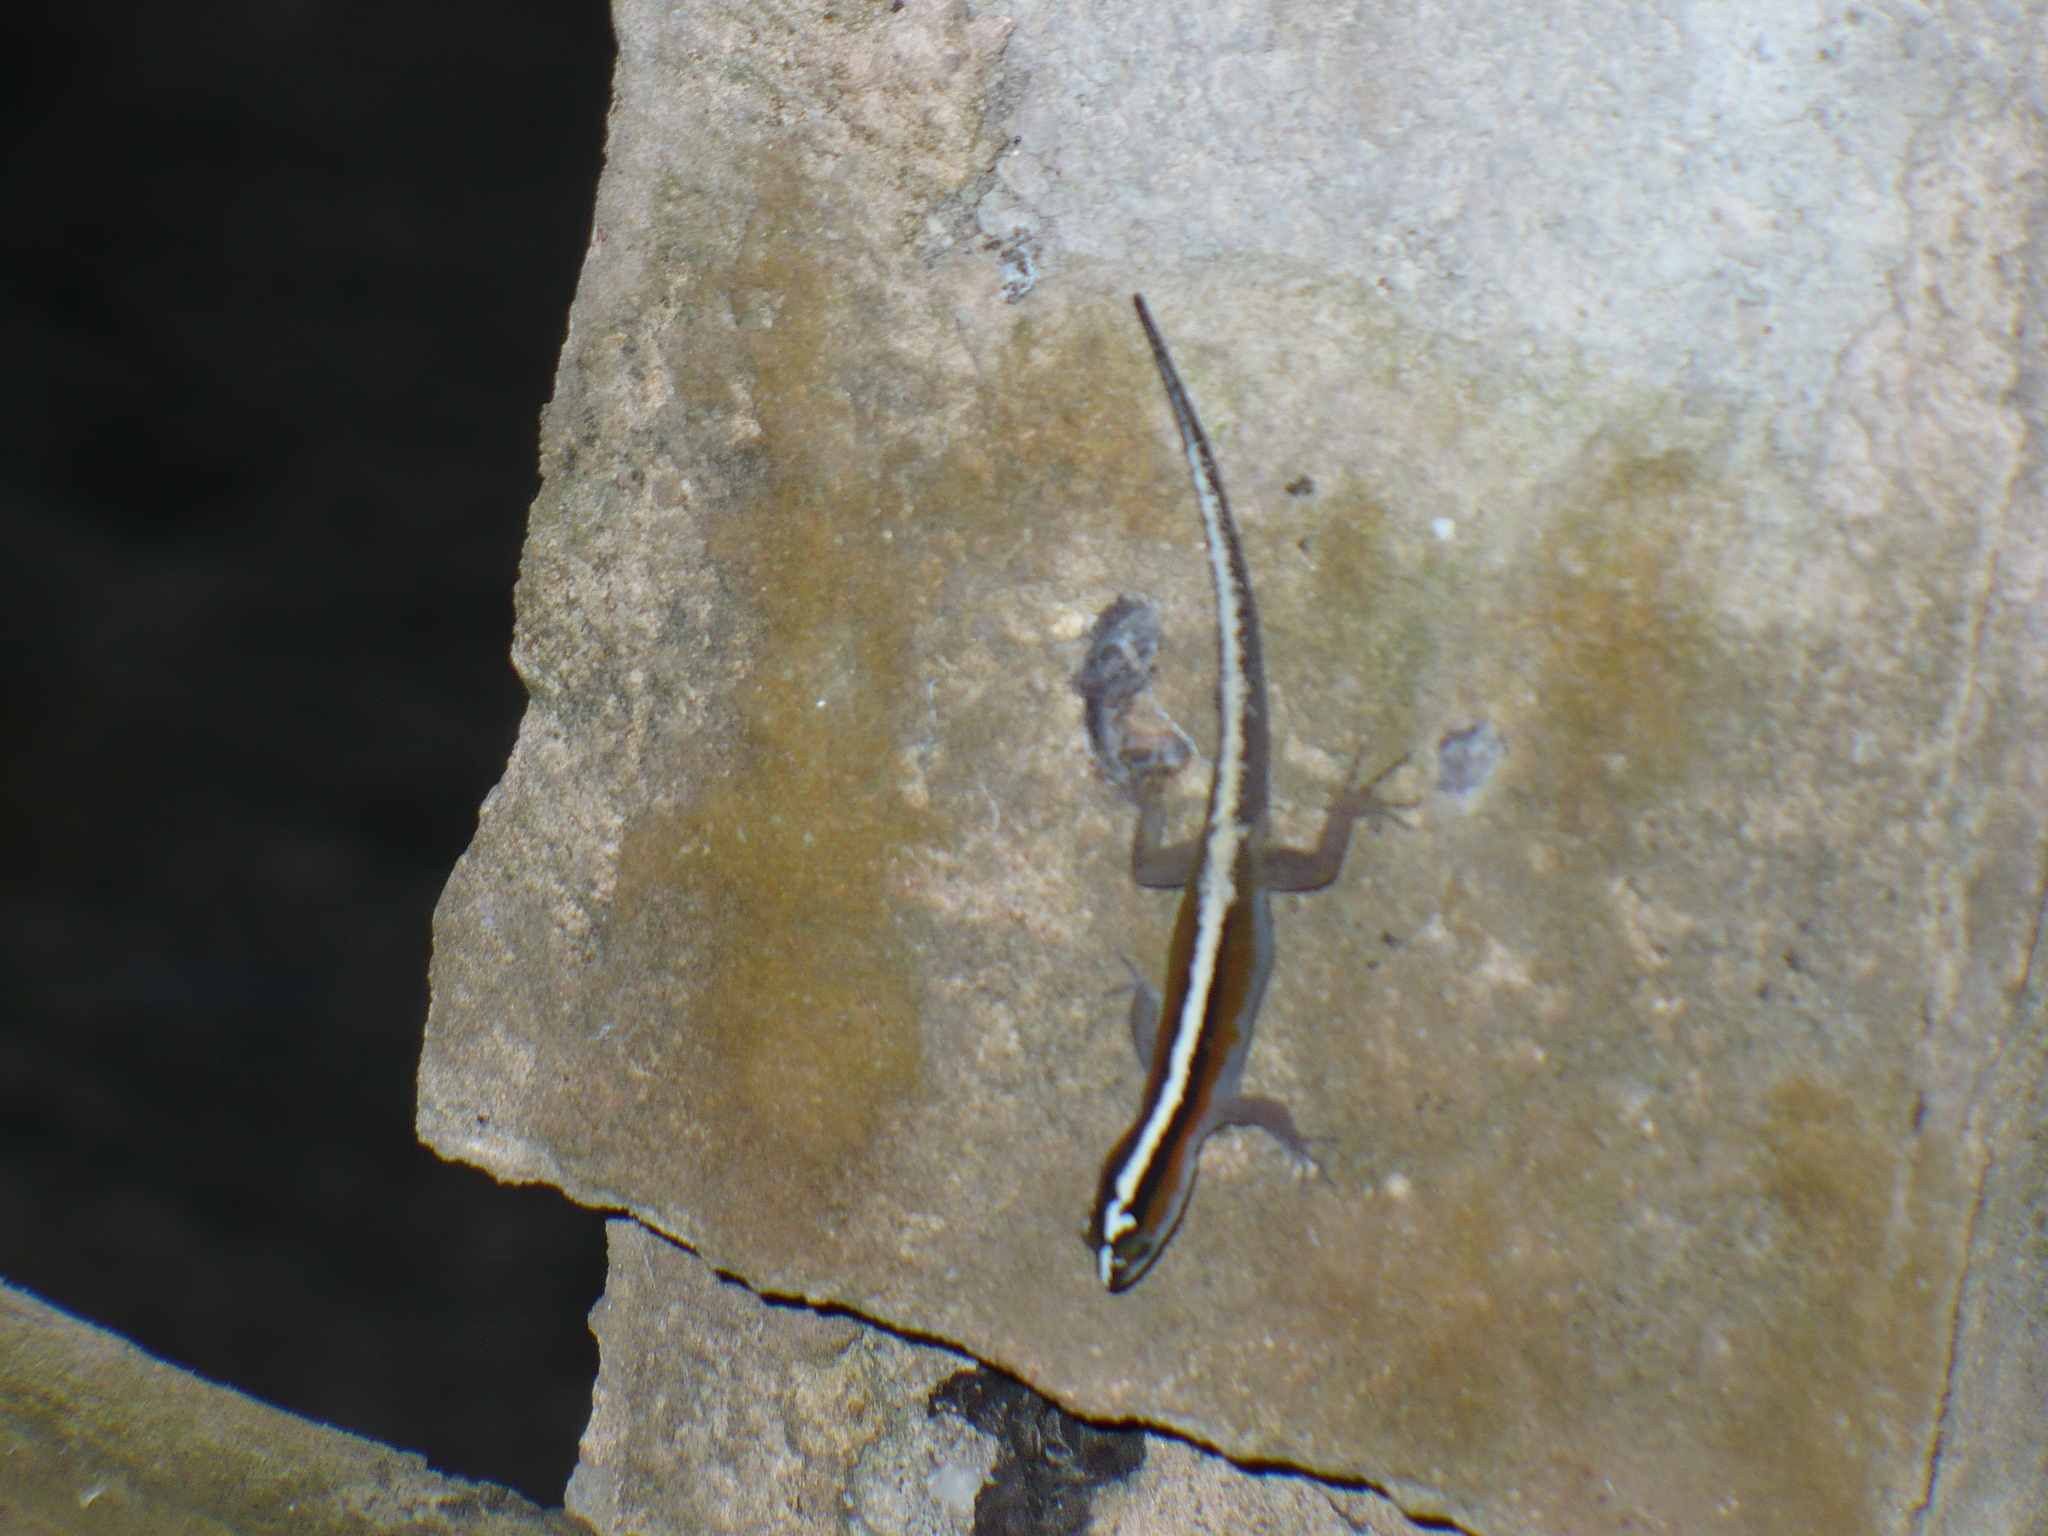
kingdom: Animalia
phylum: Chordata
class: Squamata
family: Sphaerodactylidae
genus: Gonatodes
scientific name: Gonatodes vittatus
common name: Wiegmann's striped gecko
